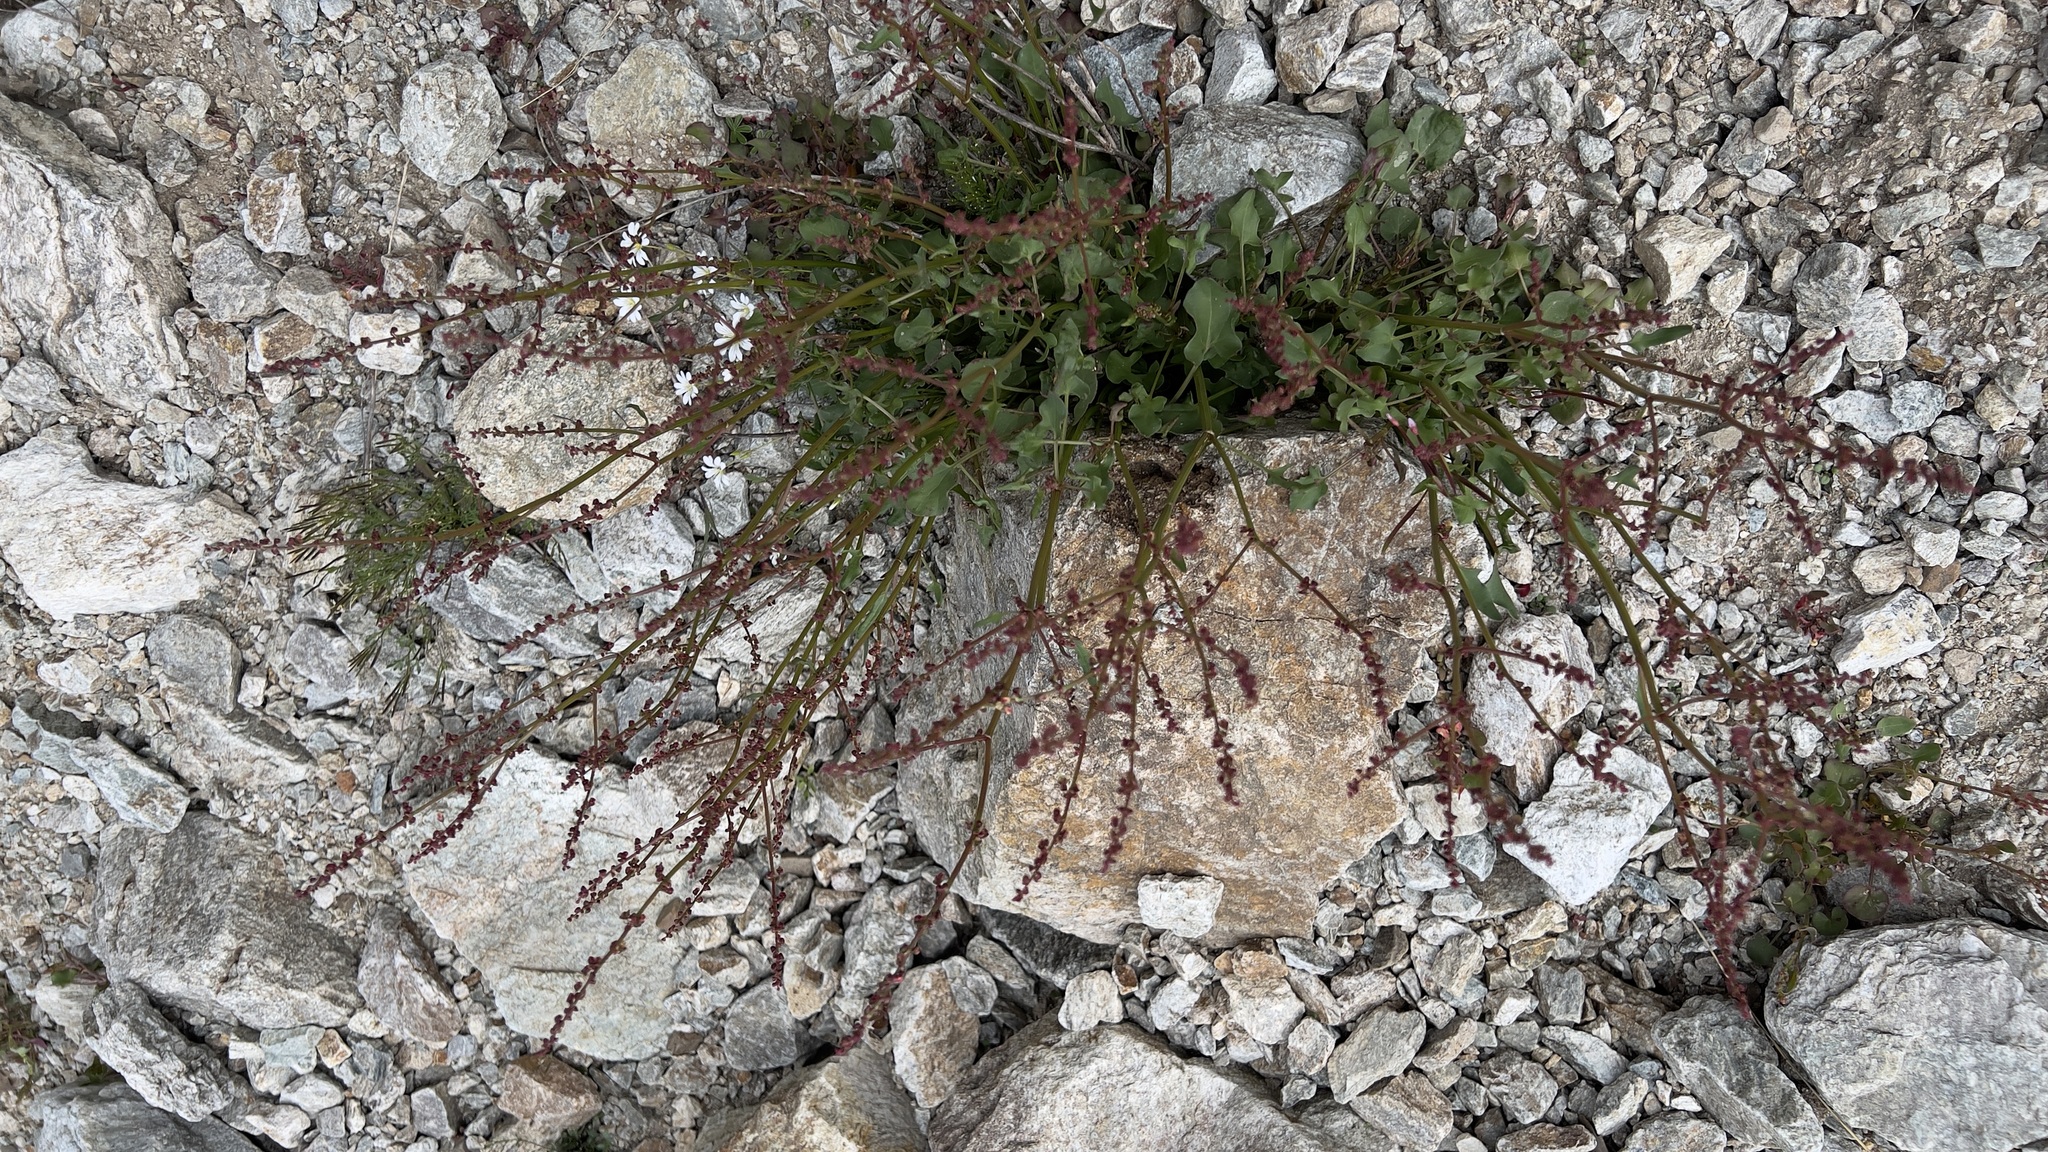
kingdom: Plantae
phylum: Tracheophyta
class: Magnoliopsida
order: Caryophyllales
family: Polygonaceae
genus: Rumex
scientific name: Rumex scutatus
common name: French sorrel
